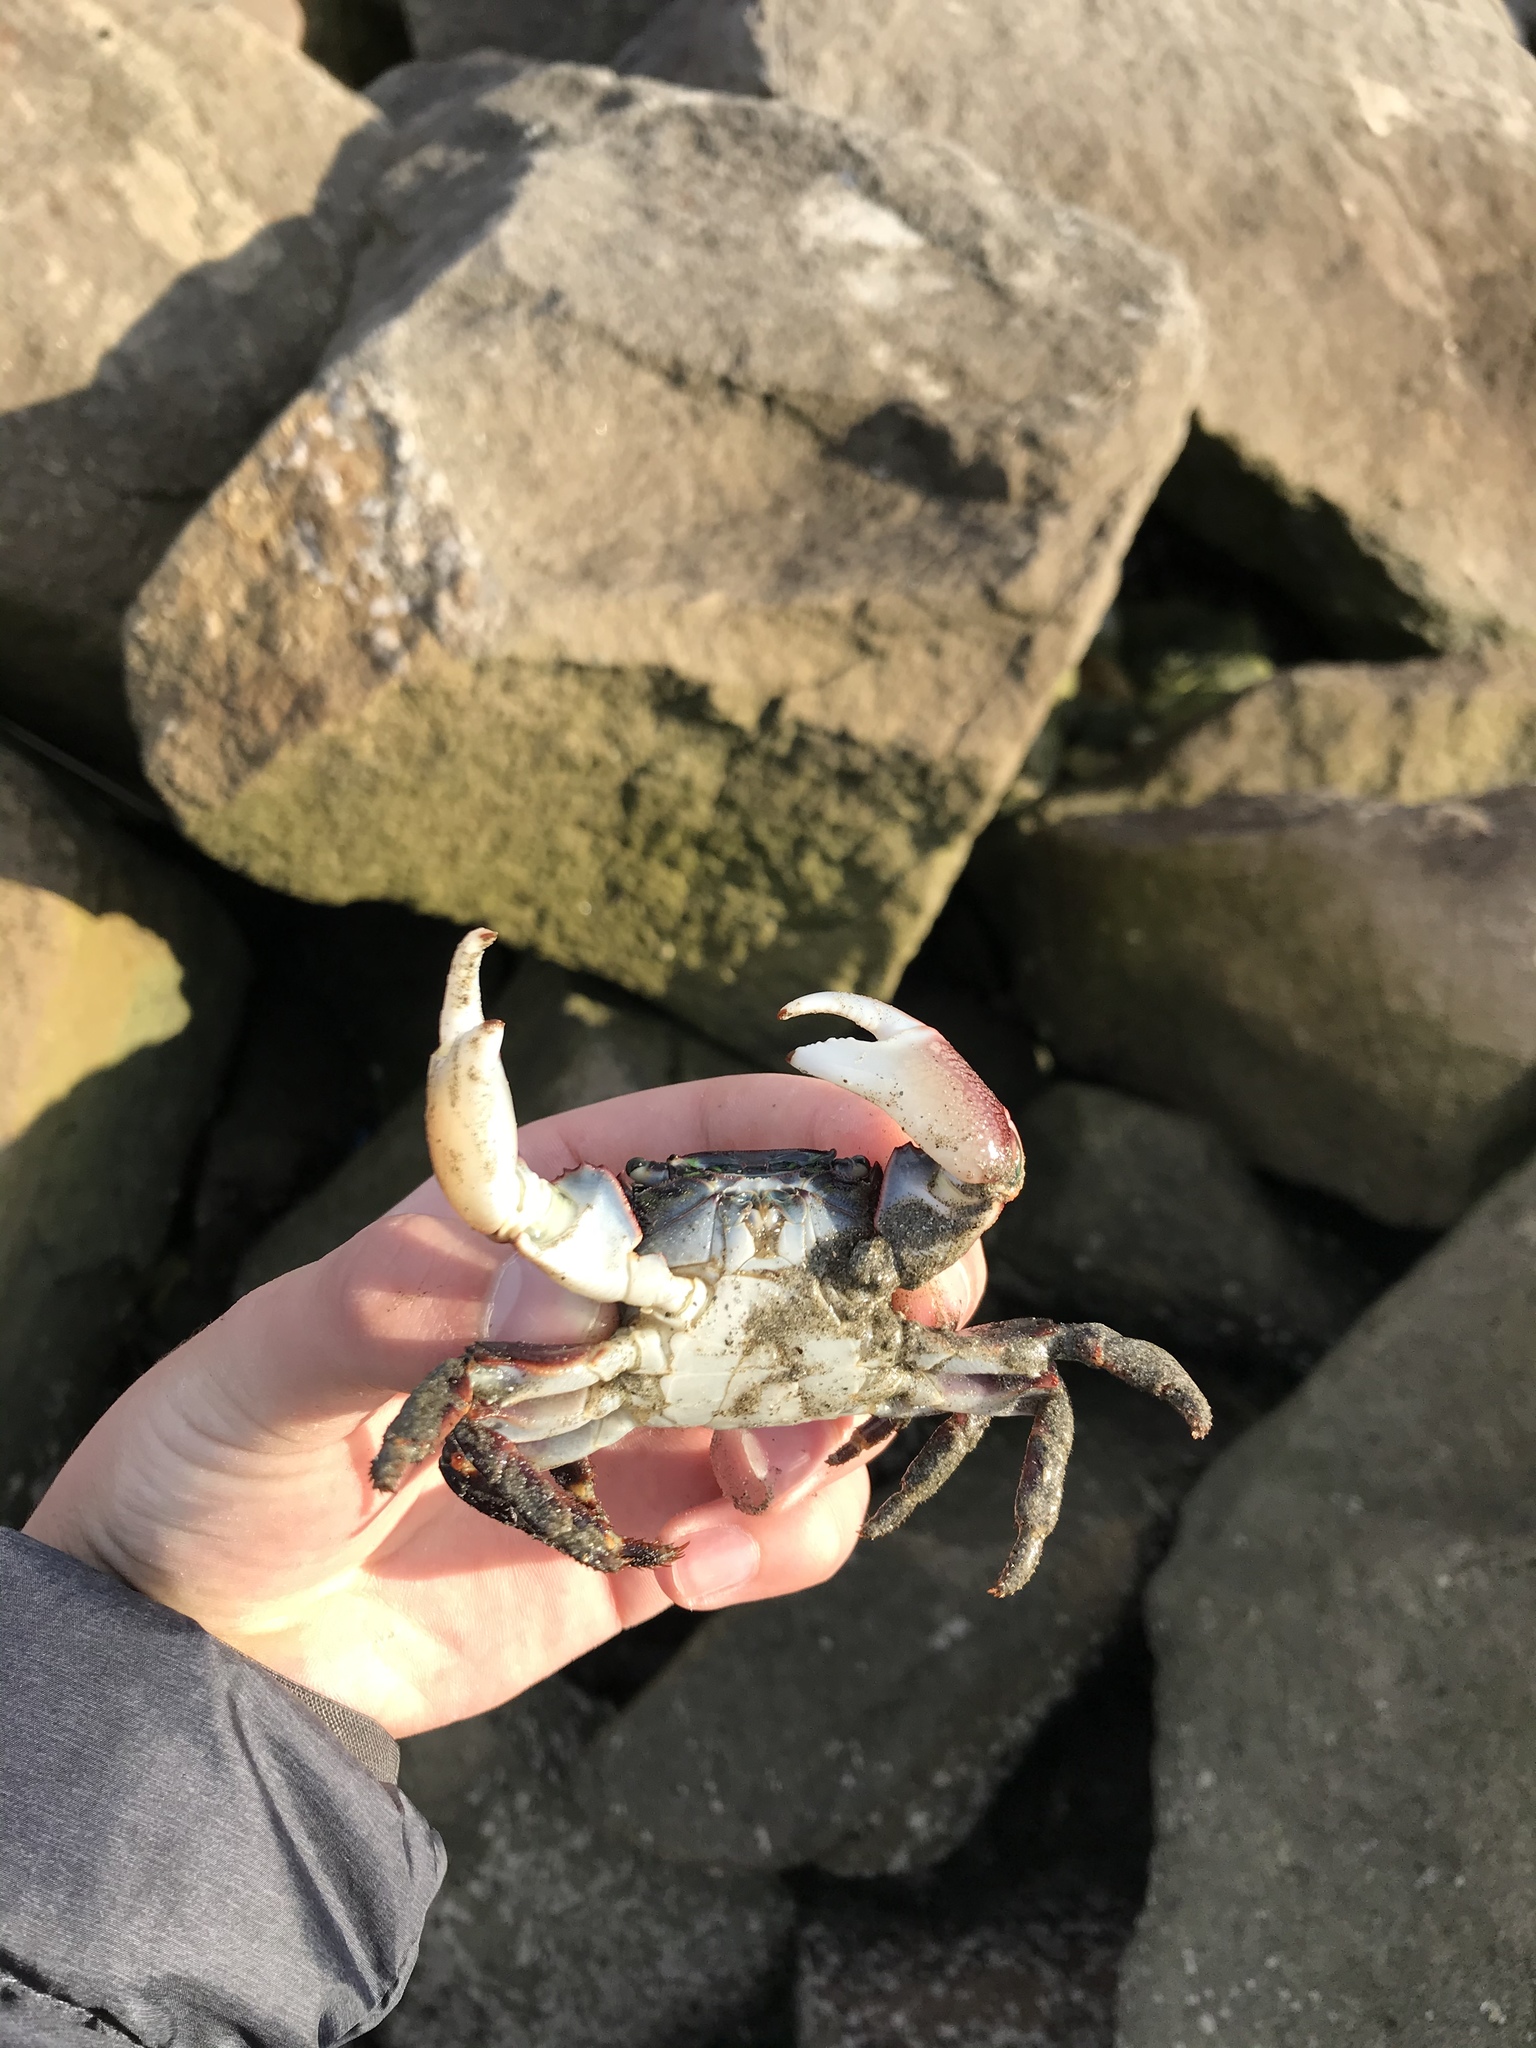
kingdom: Animalia
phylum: Arthropoda
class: Malacostraca
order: Decapoda
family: Grapsidae
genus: Pachygrapsus
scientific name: Pachygrapsus crassipes
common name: Striped shore crab
